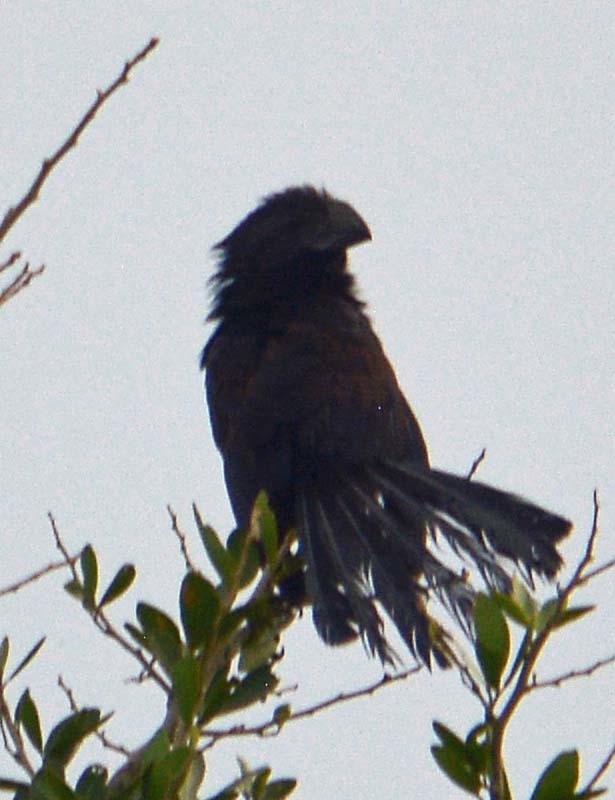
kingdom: Animalia
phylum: Chordata
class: Aves
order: Cuculiformes
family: Cuculidae
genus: Crotophaga
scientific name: Crotophaga sulcirostris
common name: Groove-billed ani
